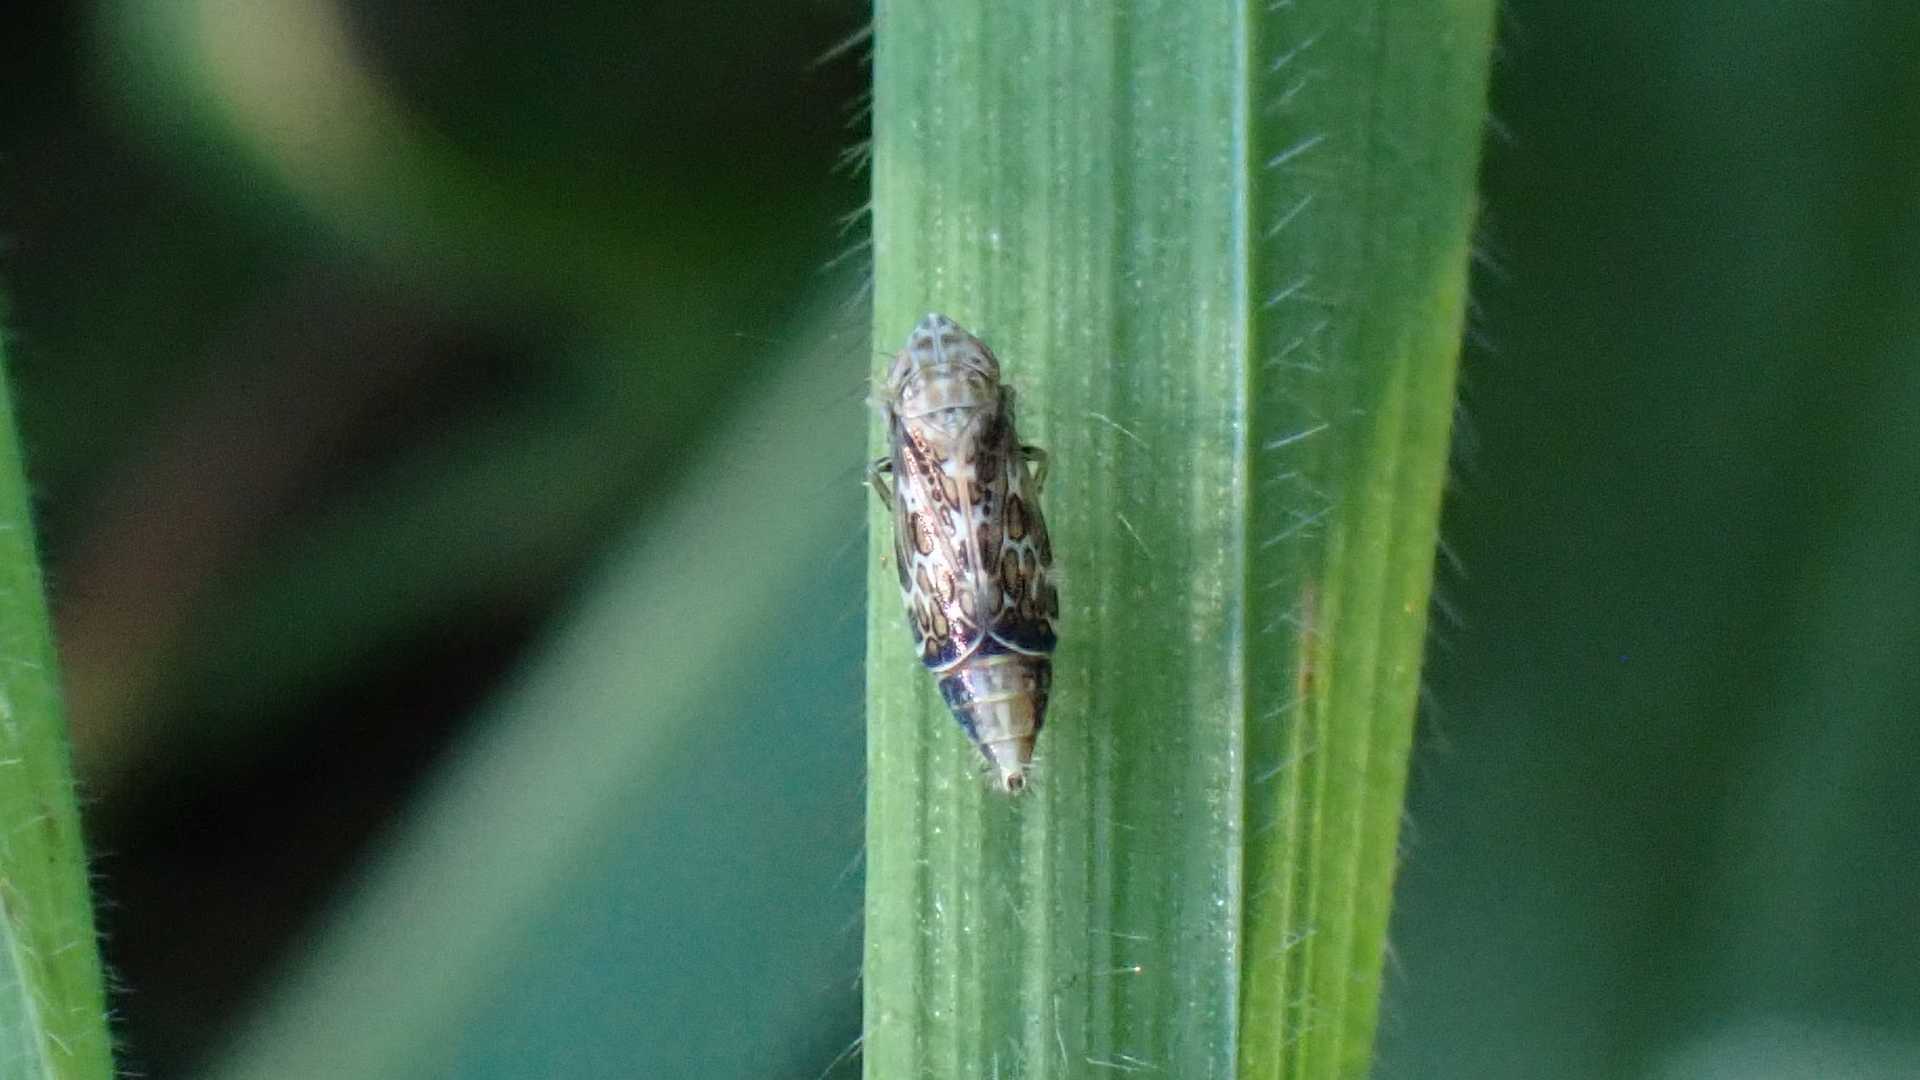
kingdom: Animalia
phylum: Arthropoda
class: Insecta
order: Hemiptera
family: Cicadellidae
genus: Errastunus
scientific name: Errastunus ocellaris
